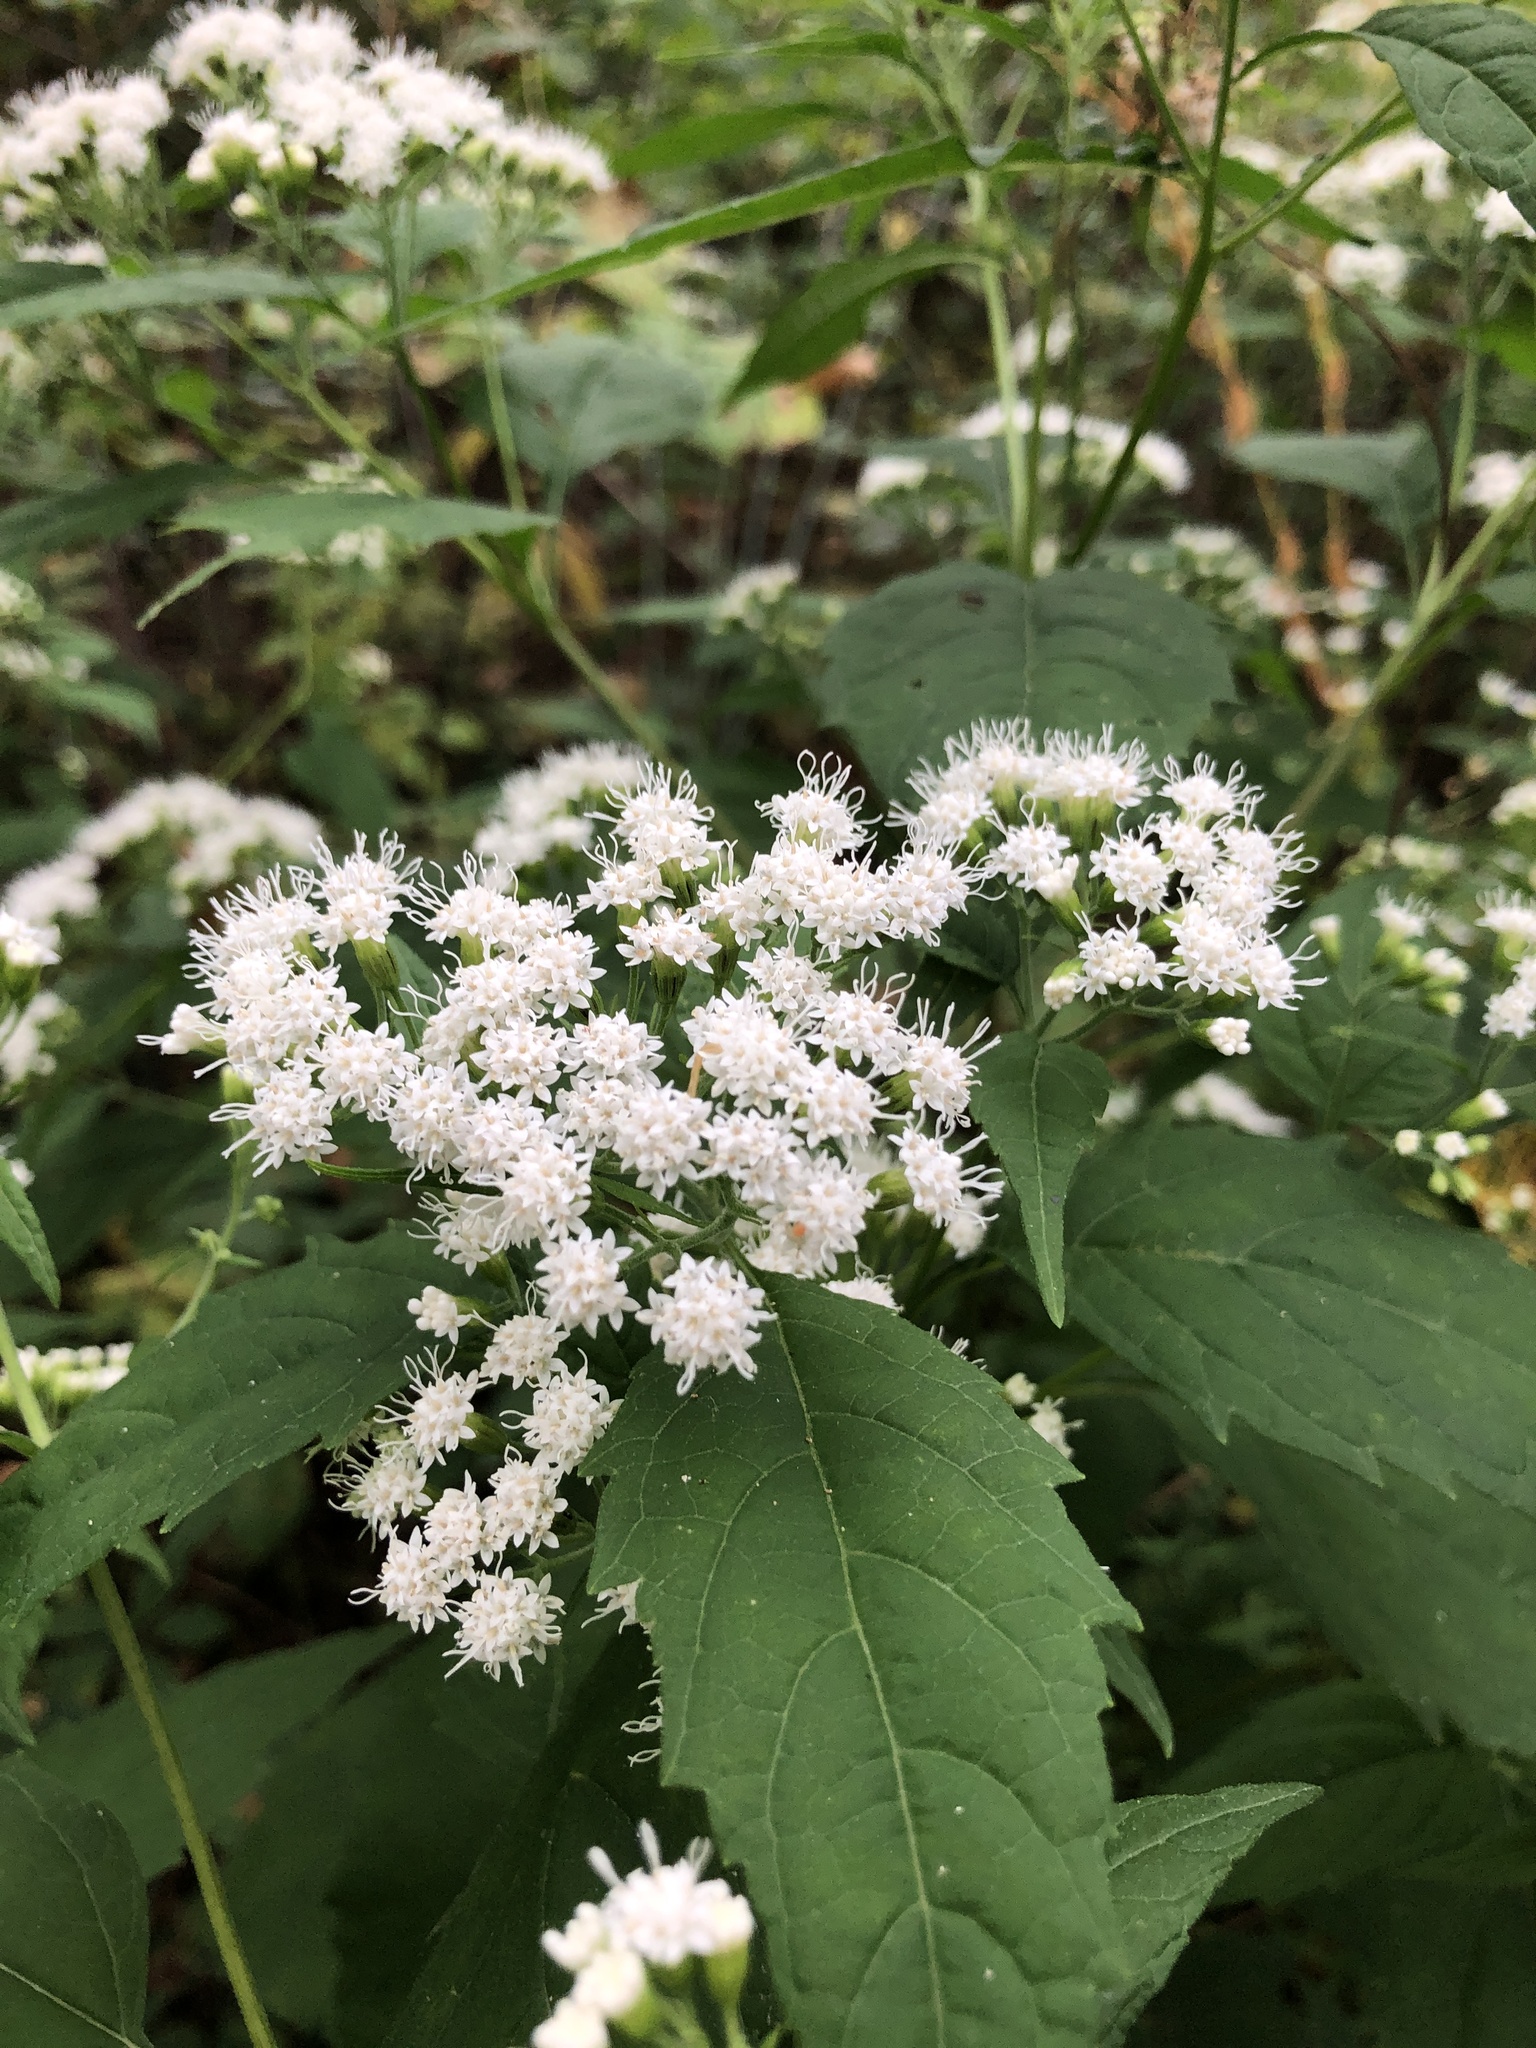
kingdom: Plantae
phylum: Tracheophyta
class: Magnoliopsida
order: Asterales
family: Asteraceae
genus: Ageratina
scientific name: Ageratina altissima
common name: White snakeroot
